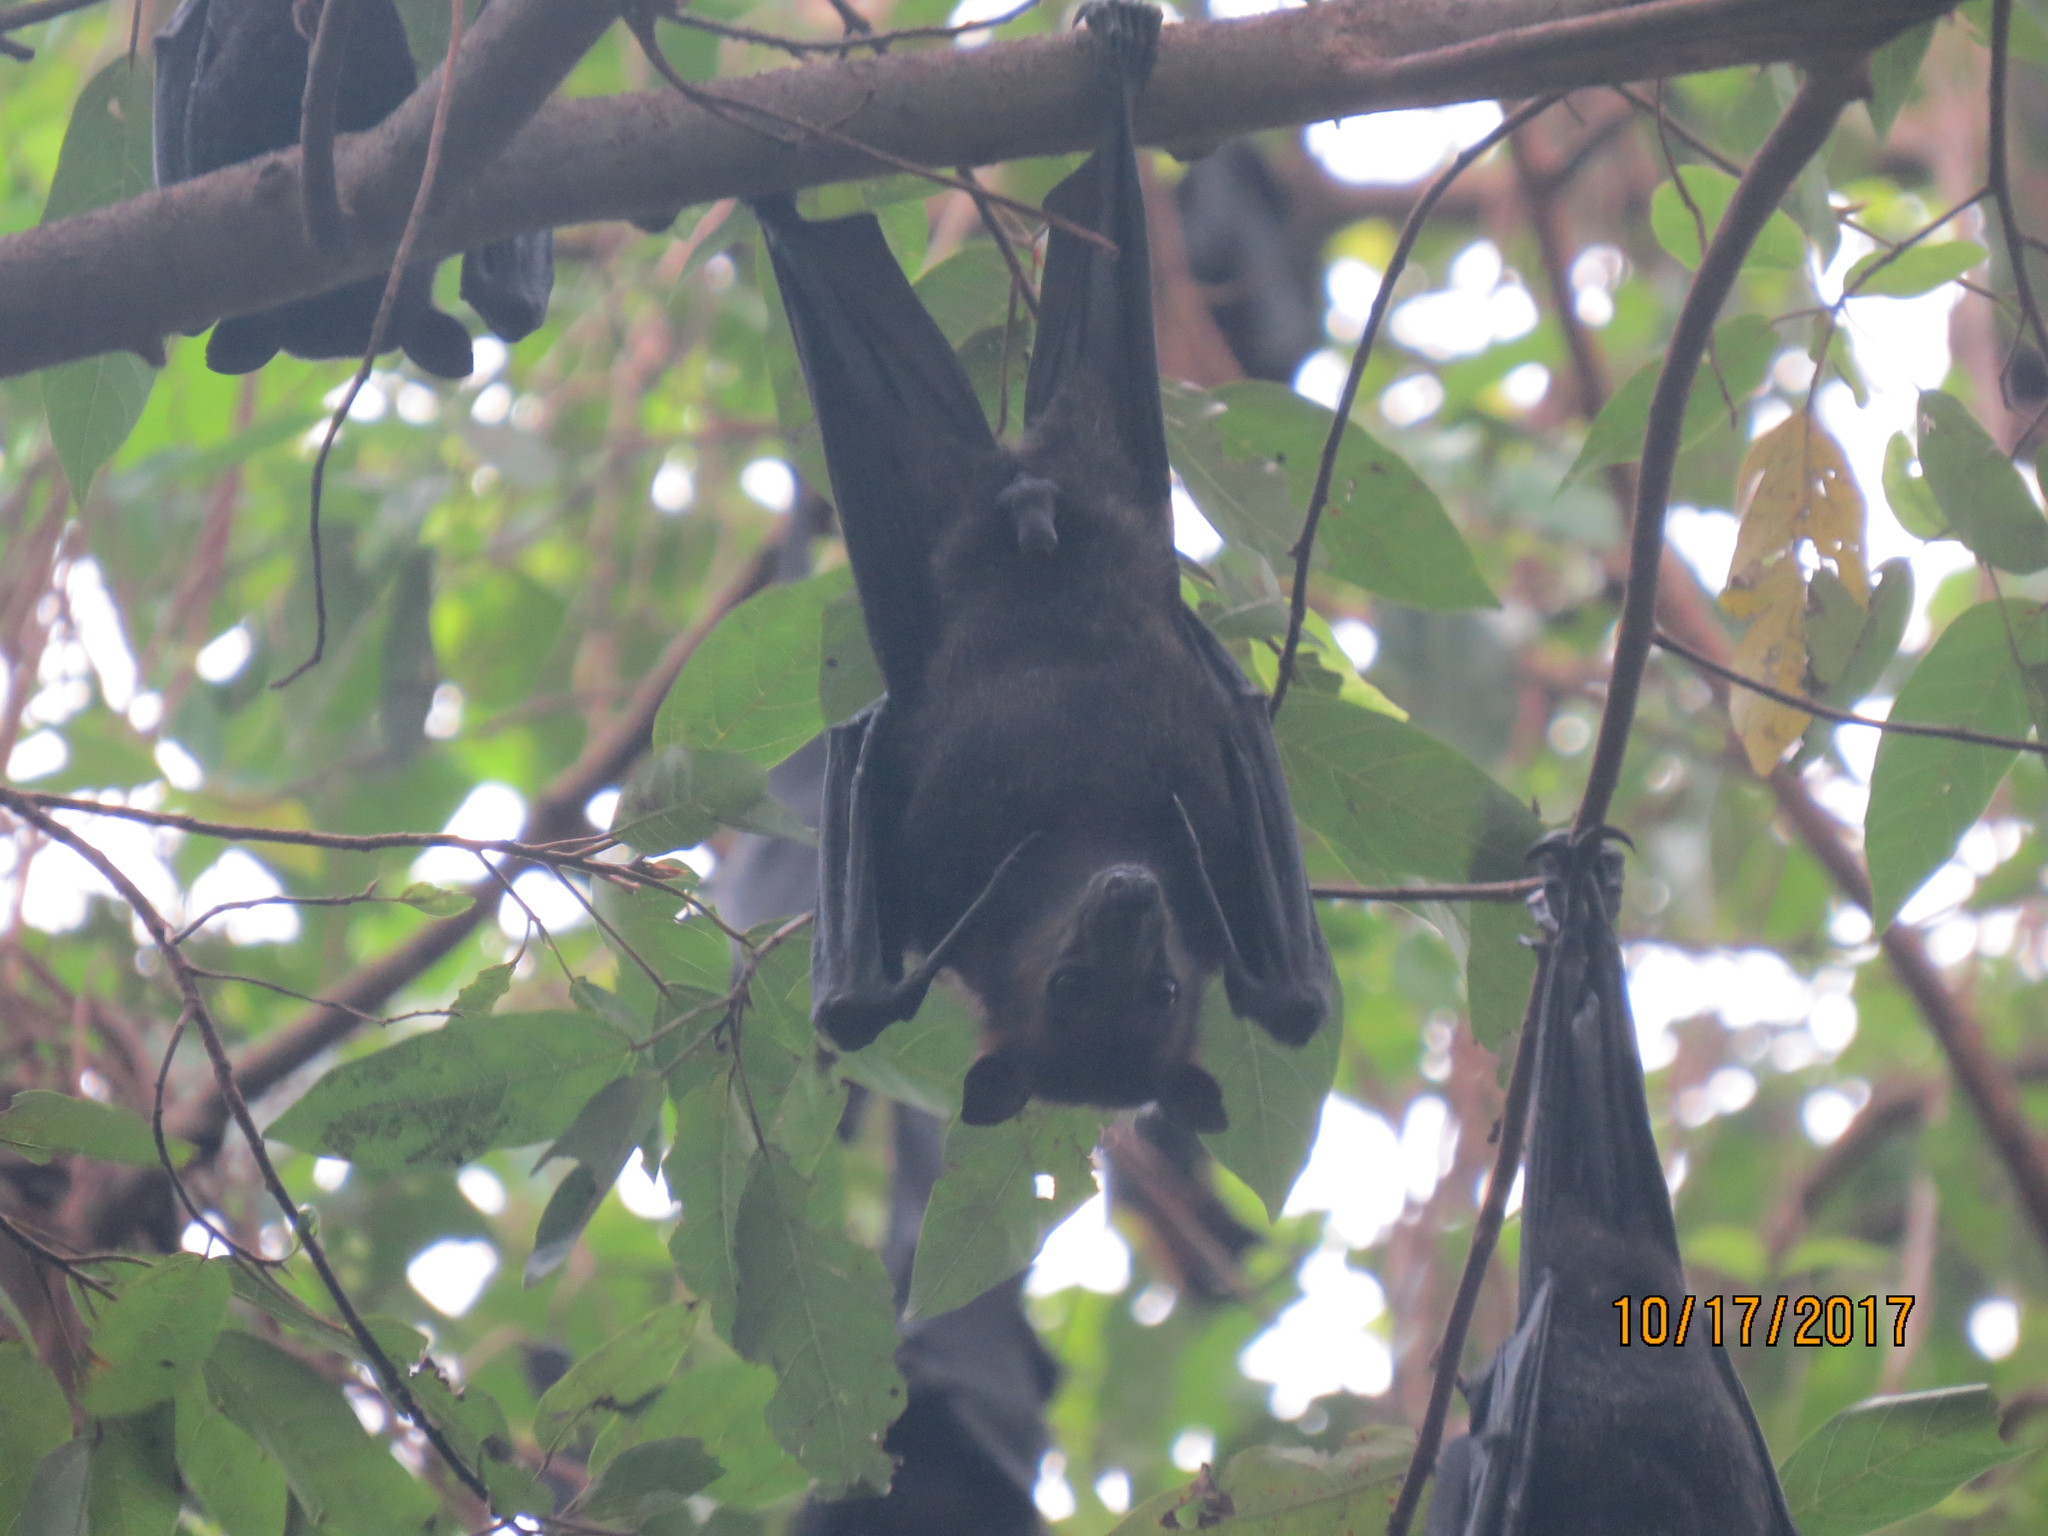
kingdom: Animalia
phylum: Chordata
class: Mammalia
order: Chiroptera
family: Pteropodidae
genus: Pteropus
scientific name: Pteropus alecto
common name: Black flying fox
